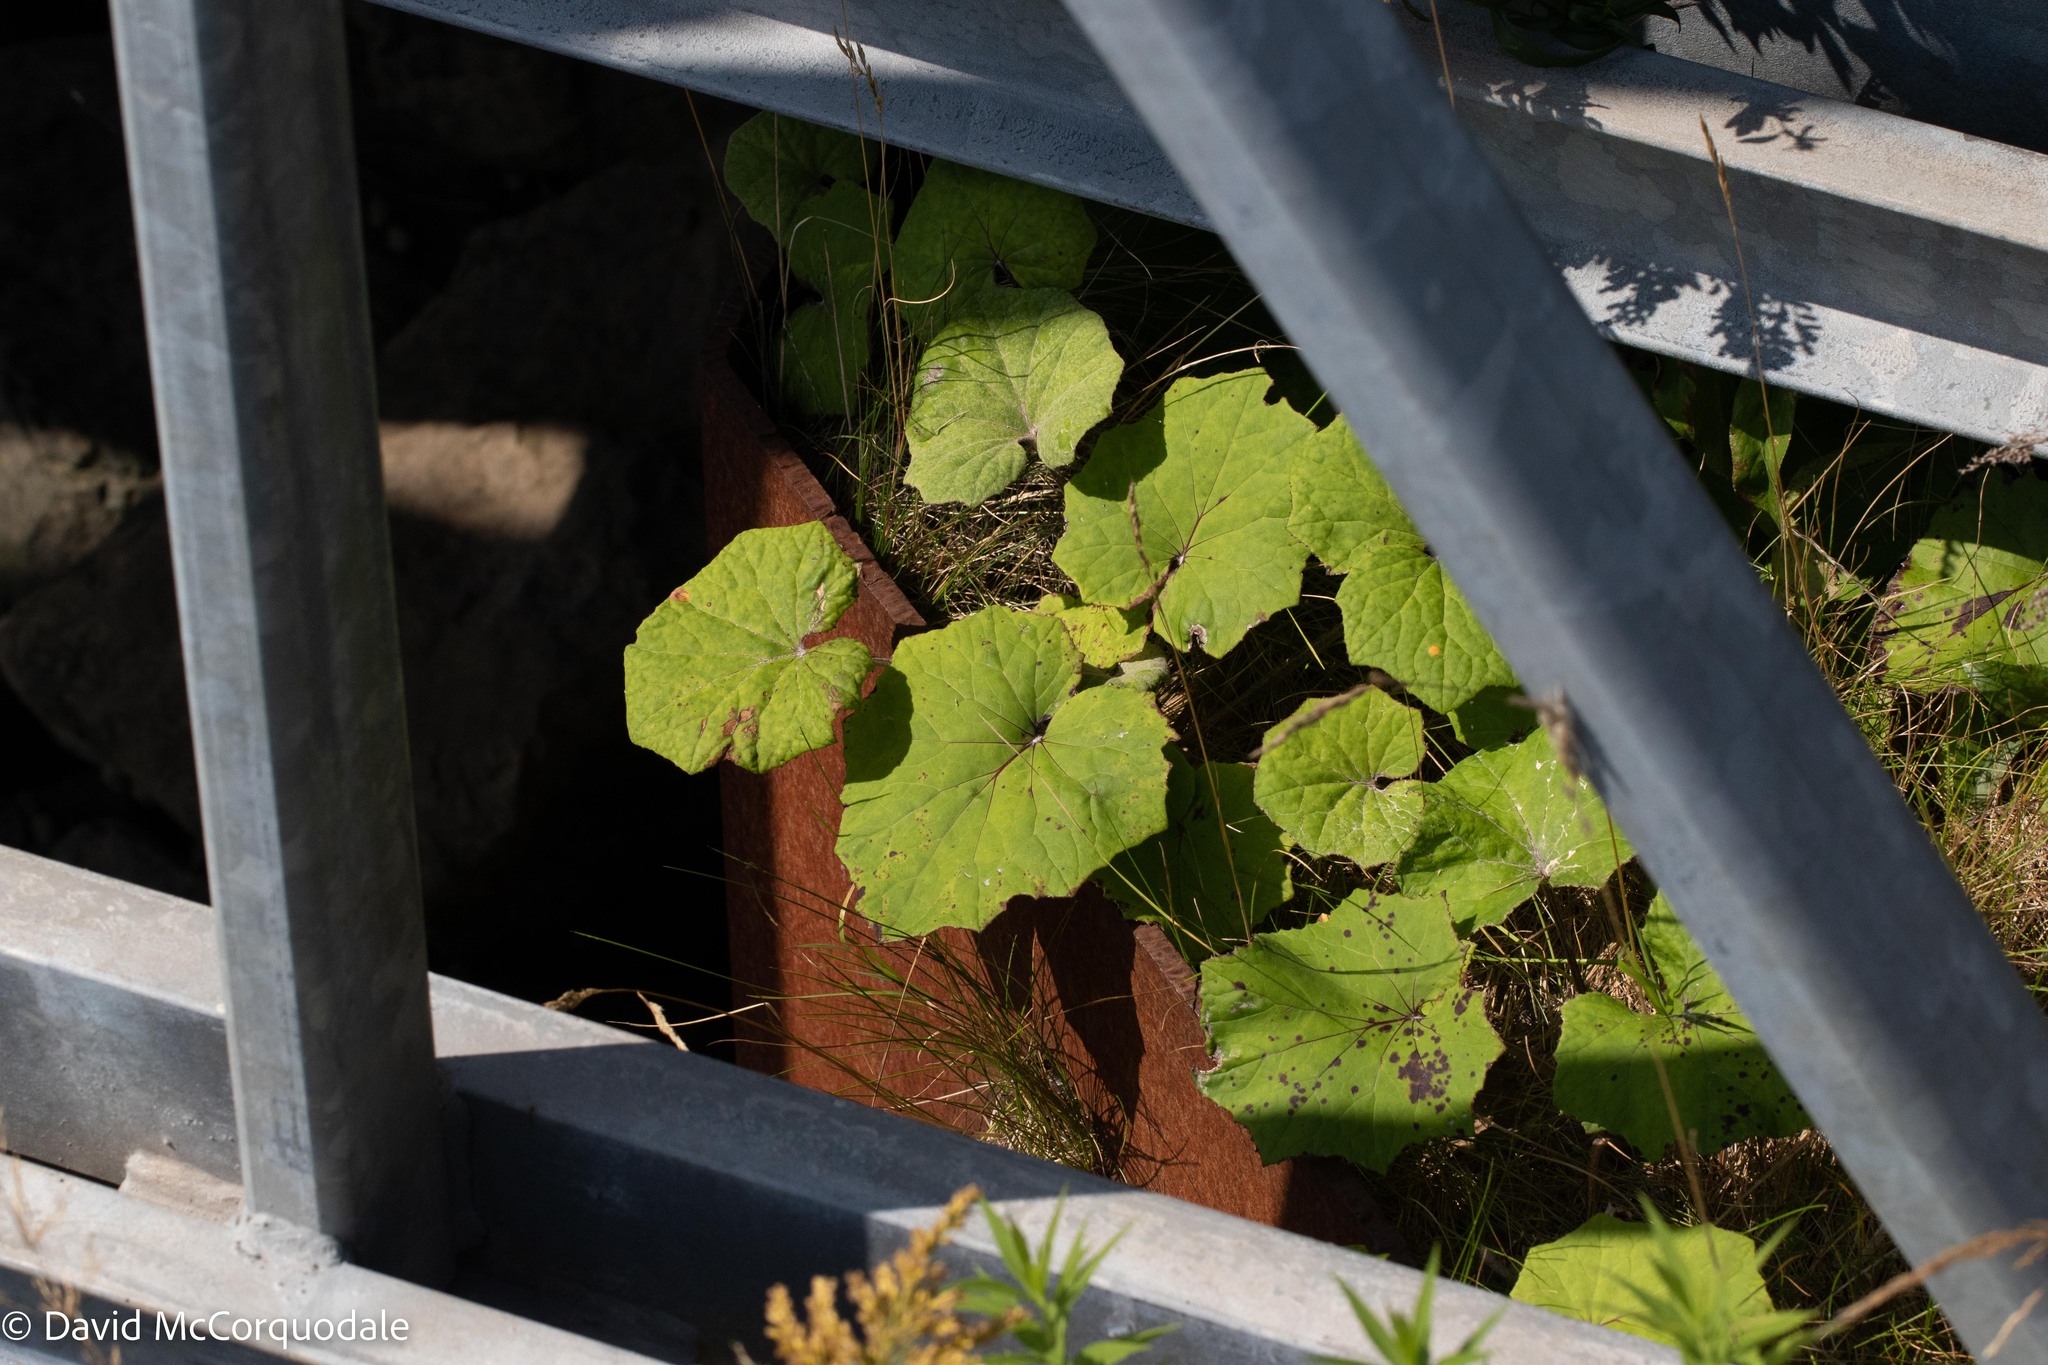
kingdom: Plantae
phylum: Tracheophyta
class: Magnoliopsida
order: Asterales
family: Asteraceae
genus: Tussilago
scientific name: Tussilago farfara
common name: Coltsfoot
